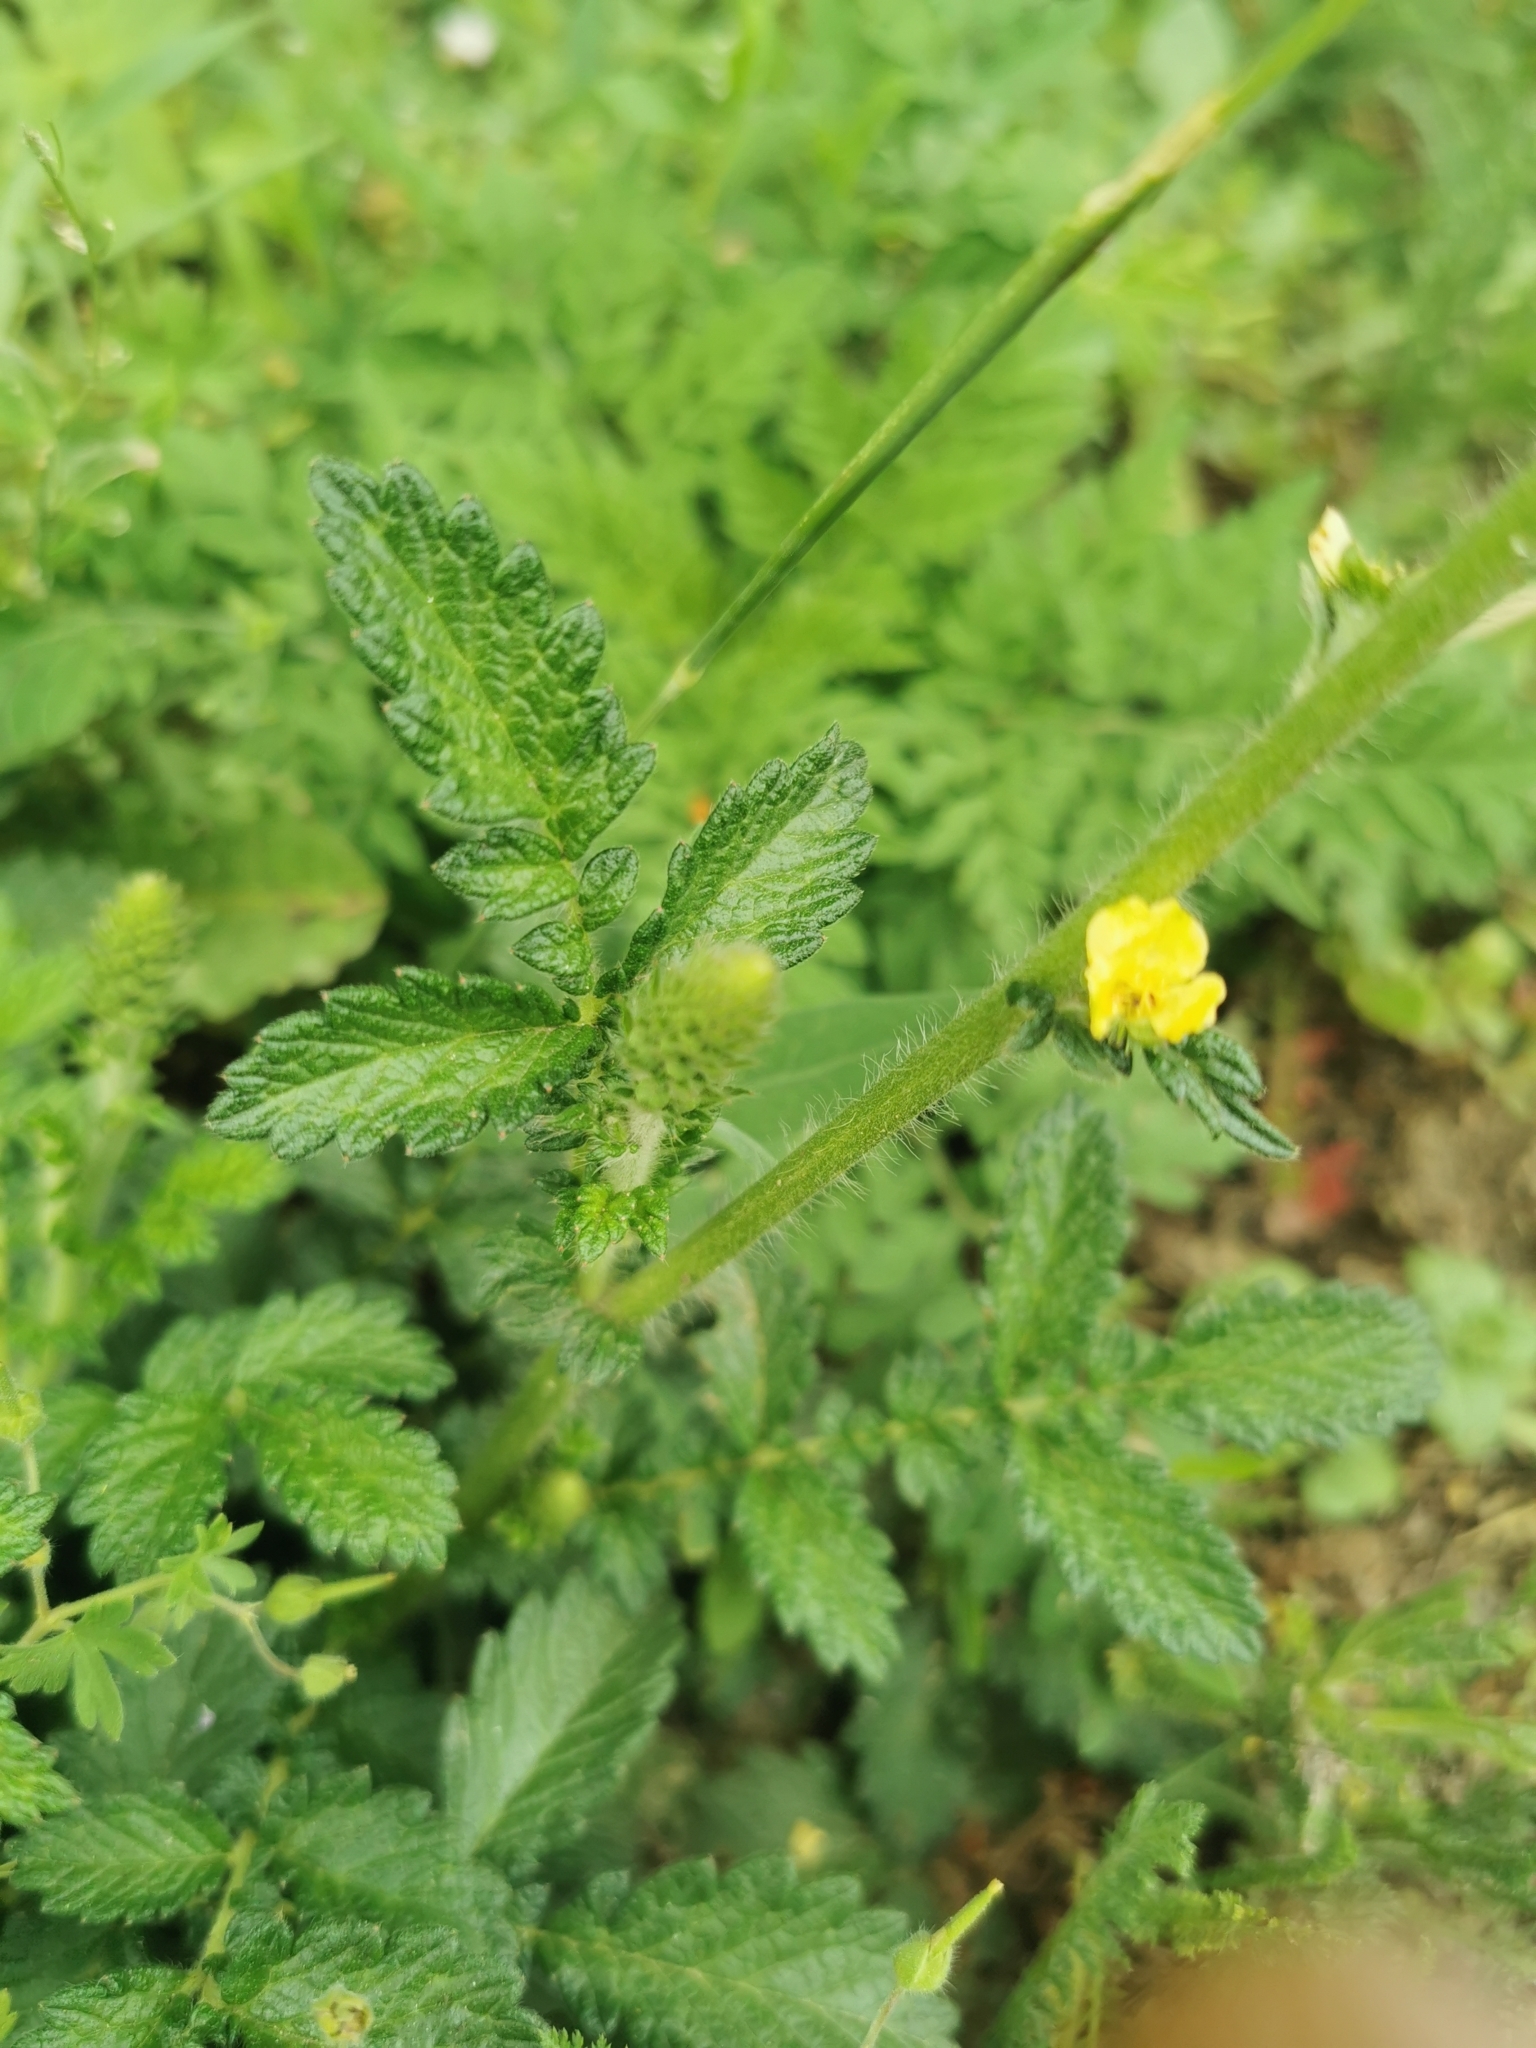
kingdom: Plantae
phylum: Tracheophyta
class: Magnoliopsida
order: Rosales
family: Rosaceae
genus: Agrimonia
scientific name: Agrimonia eupatoria
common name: Agrimony
